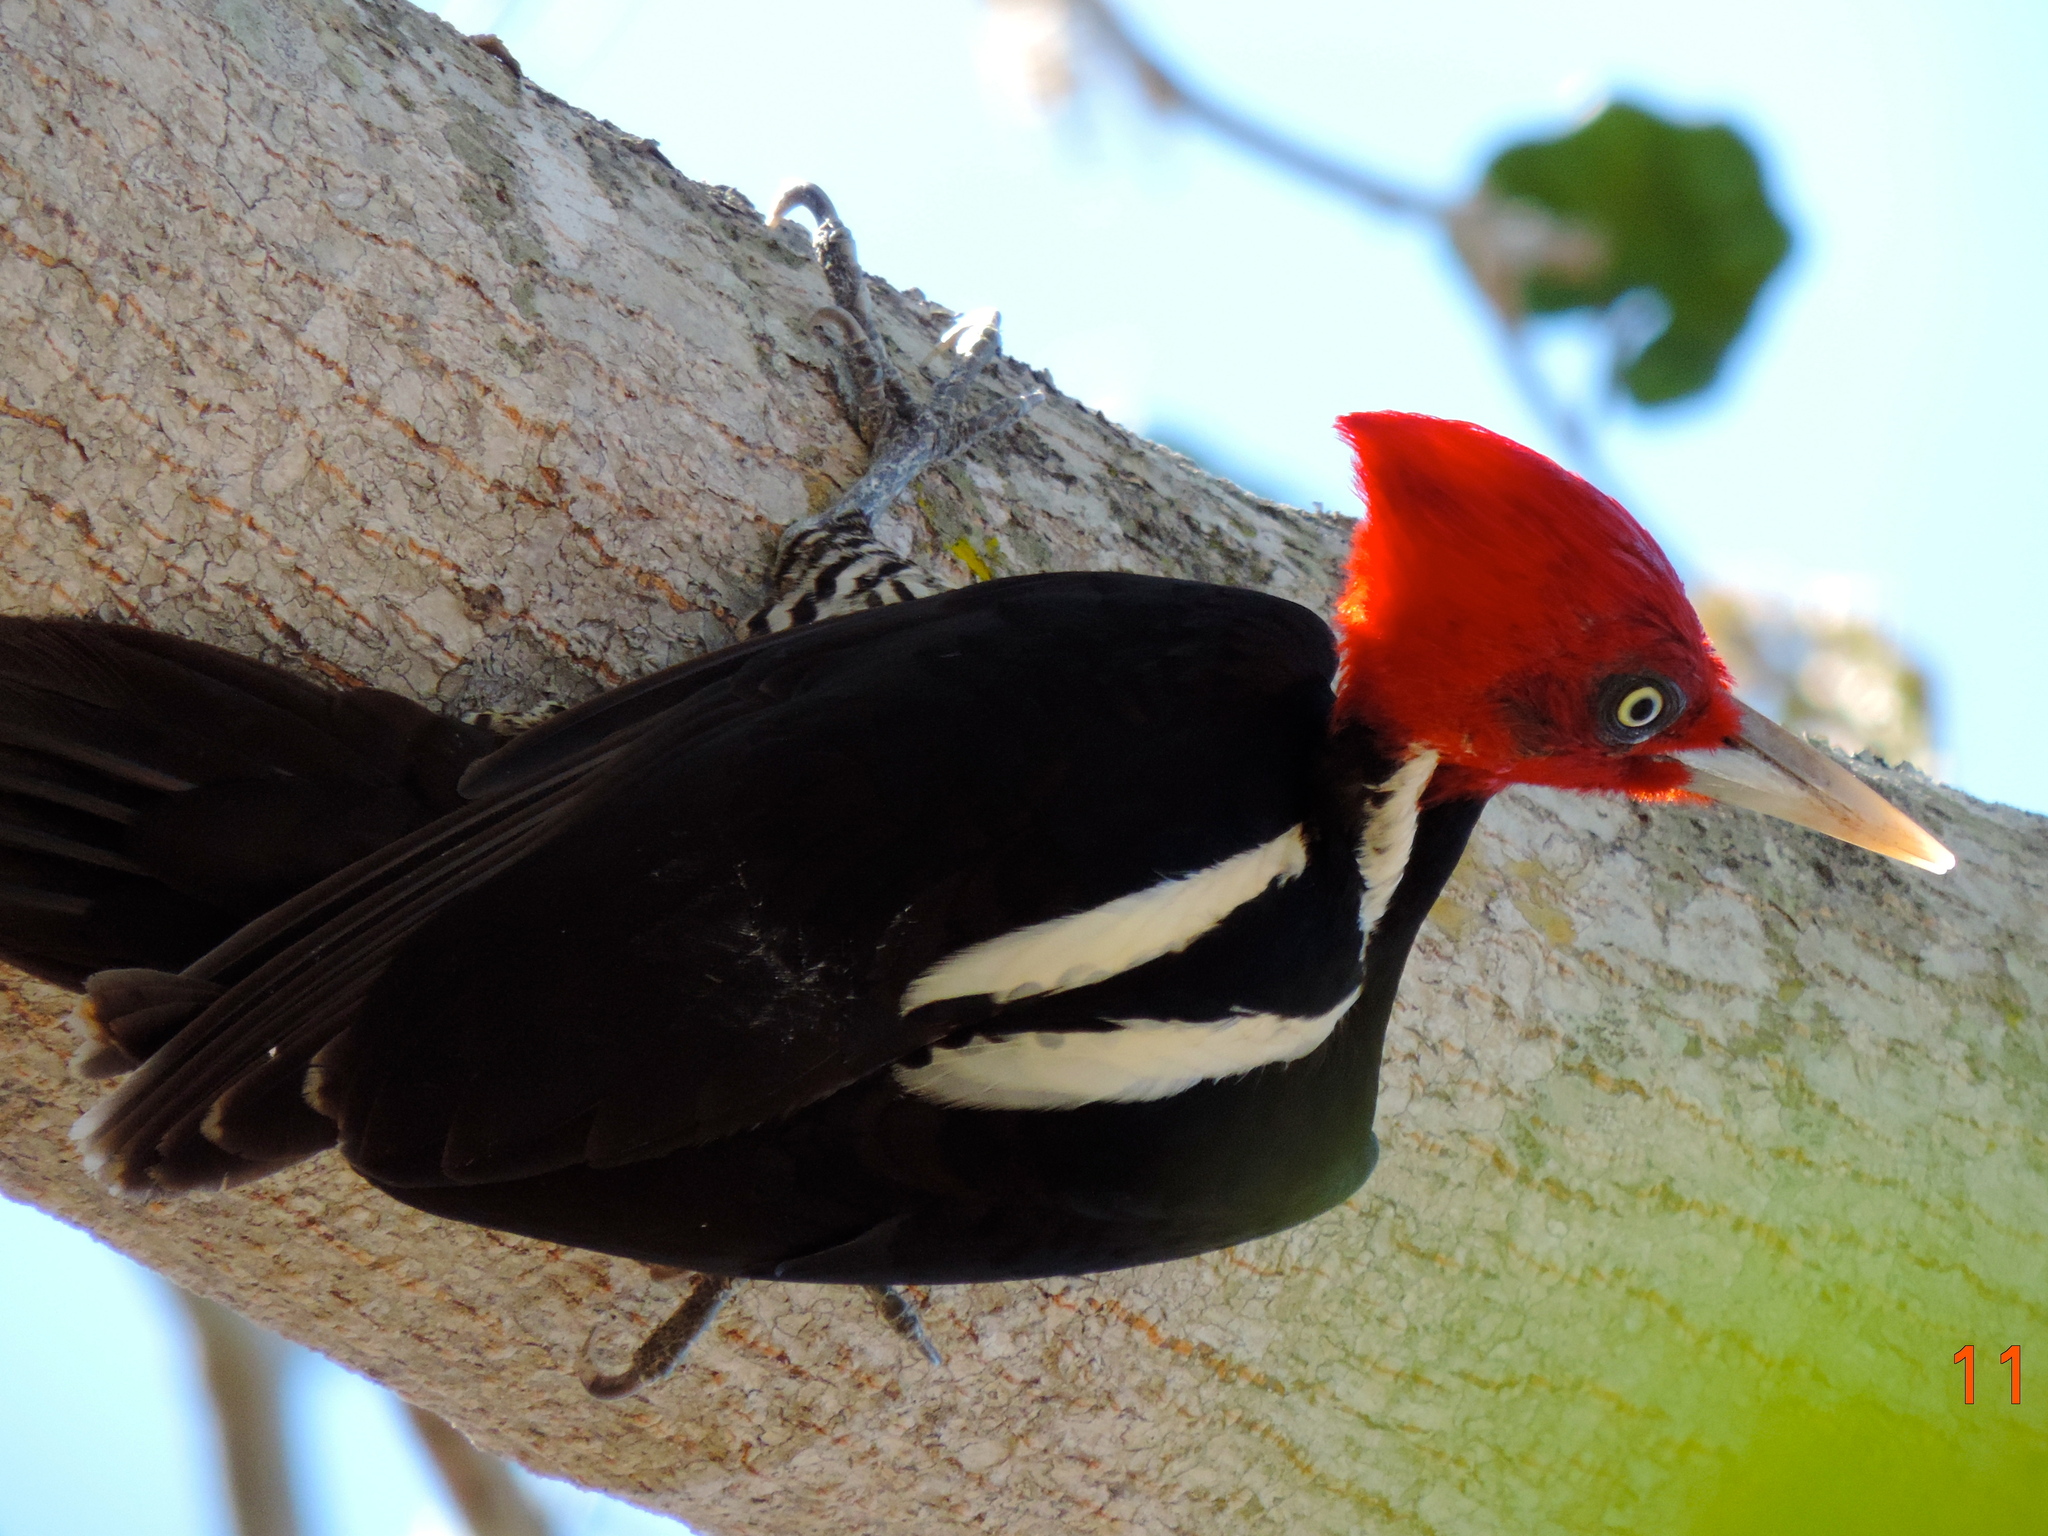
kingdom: Animalia
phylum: Chordata
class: Aves
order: Piciformes
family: Picidae
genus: Campephilus
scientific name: Campephilus guatemalensis
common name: Pale-billed woodpecker
